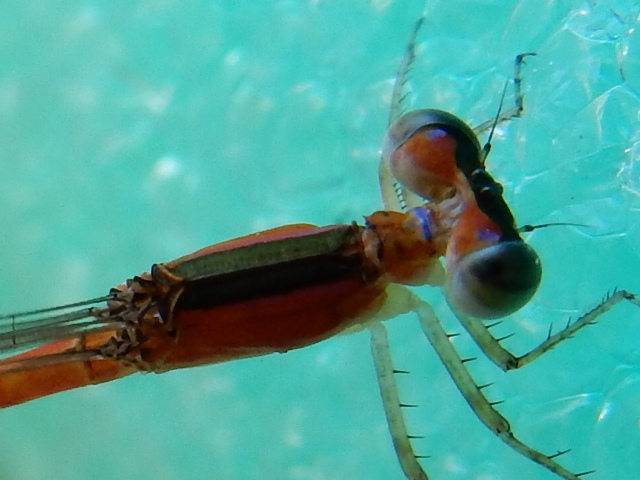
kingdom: Animalia
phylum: Arthropoda
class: Insecta
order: Odonata
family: Coenagrionidae
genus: Agriocnemis
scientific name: Agriocnemis pygmaea
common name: Pygmy wisp
